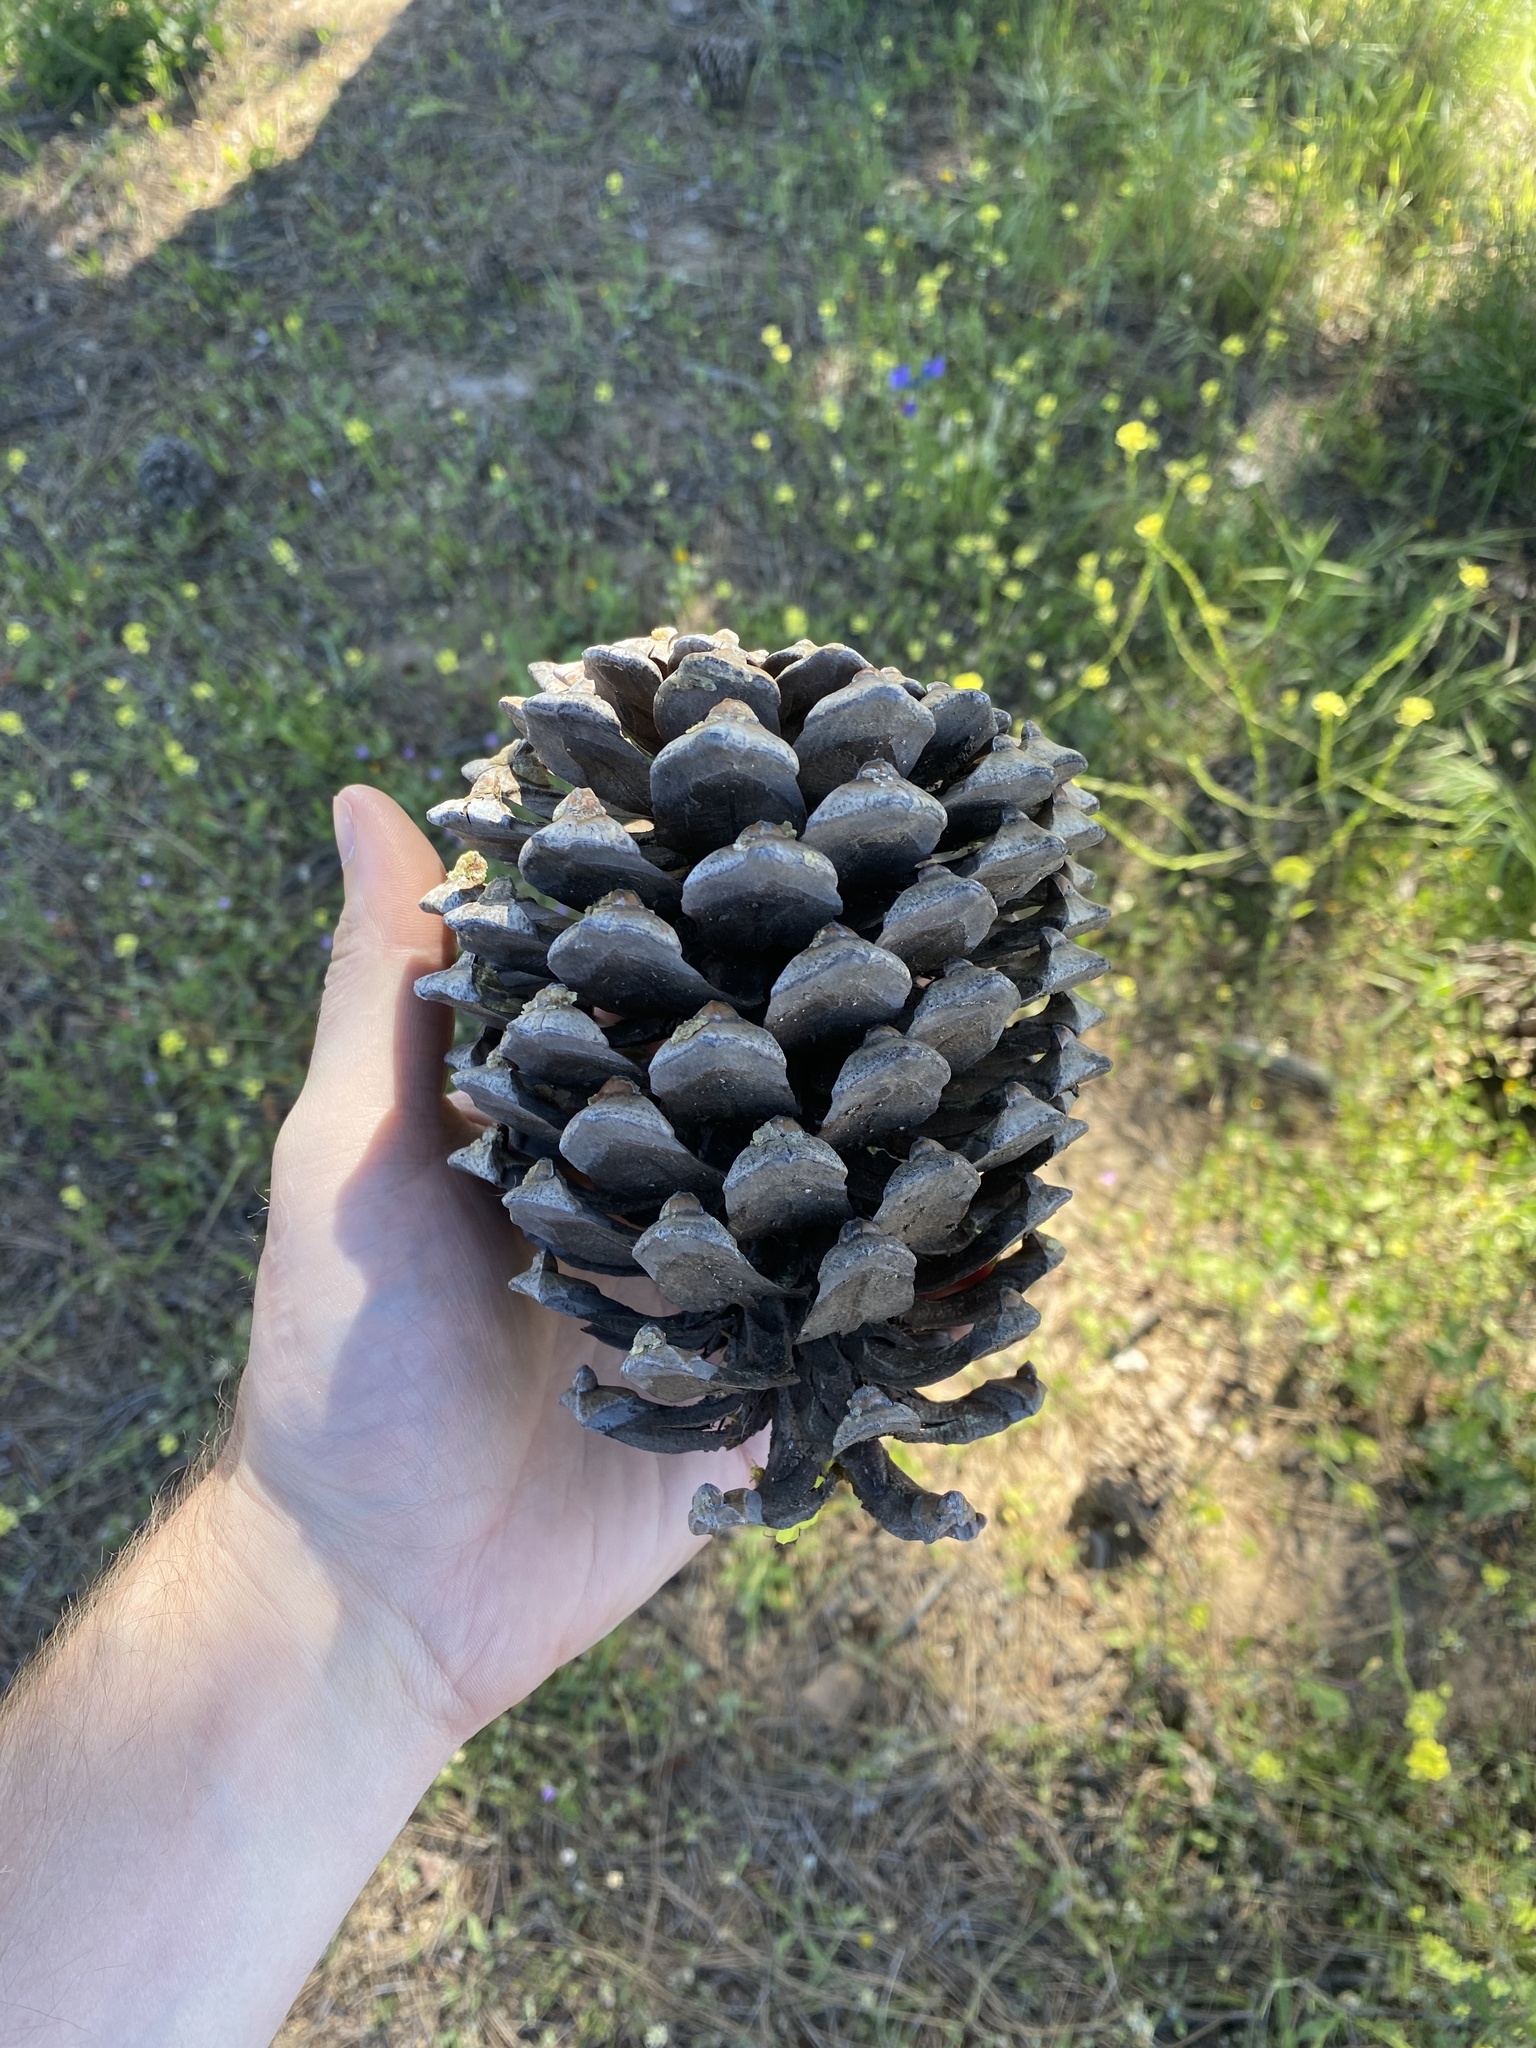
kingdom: Plantae
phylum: Tracheophyta
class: Pinopsida
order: Pinales
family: Pinaceae
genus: Pinus
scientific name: Pinus canariensis
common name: Canary islands pine
